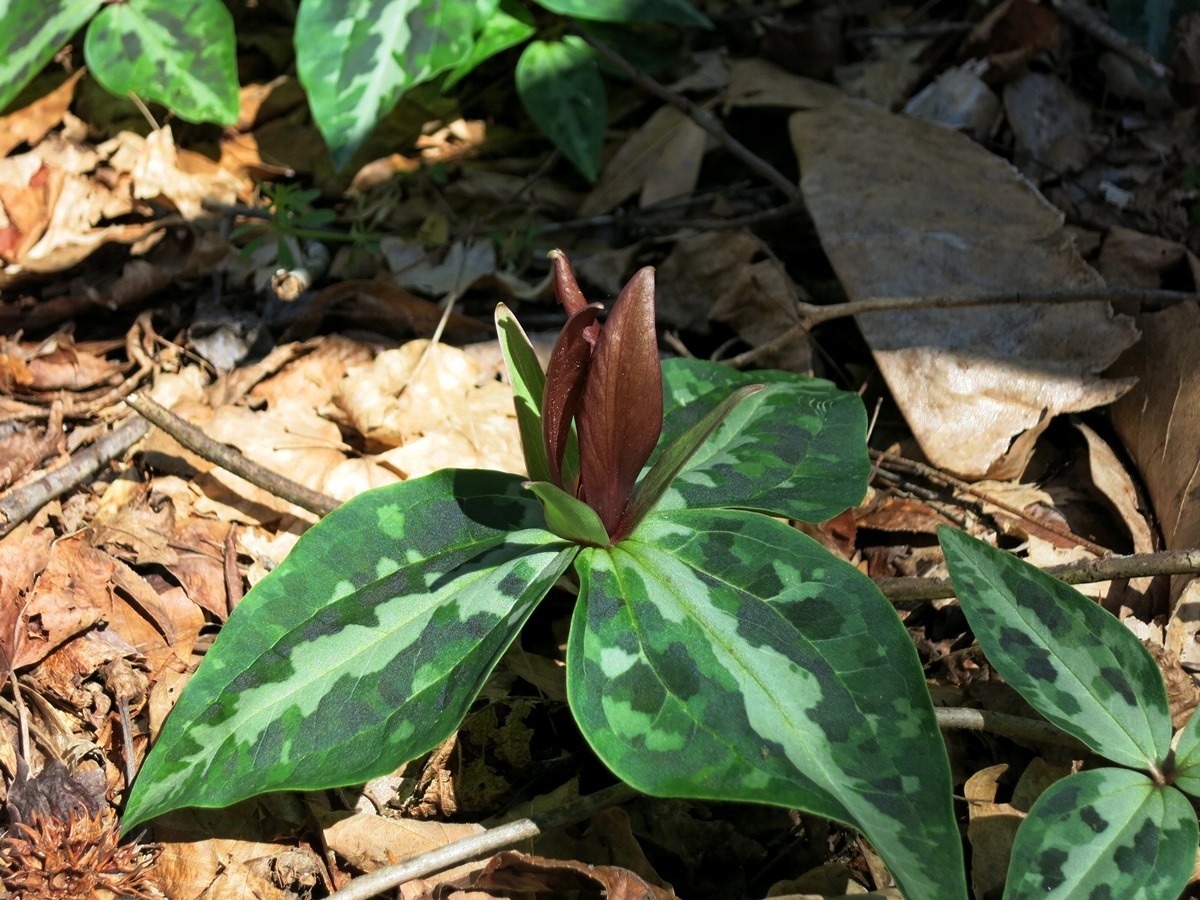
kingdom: Plantae
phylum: Tracheophyta
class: Liliopsida
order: Liliales
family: Melanthiaceae
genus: Trillium
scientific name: Trillium underwoodii
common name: Longbract wakerobin
